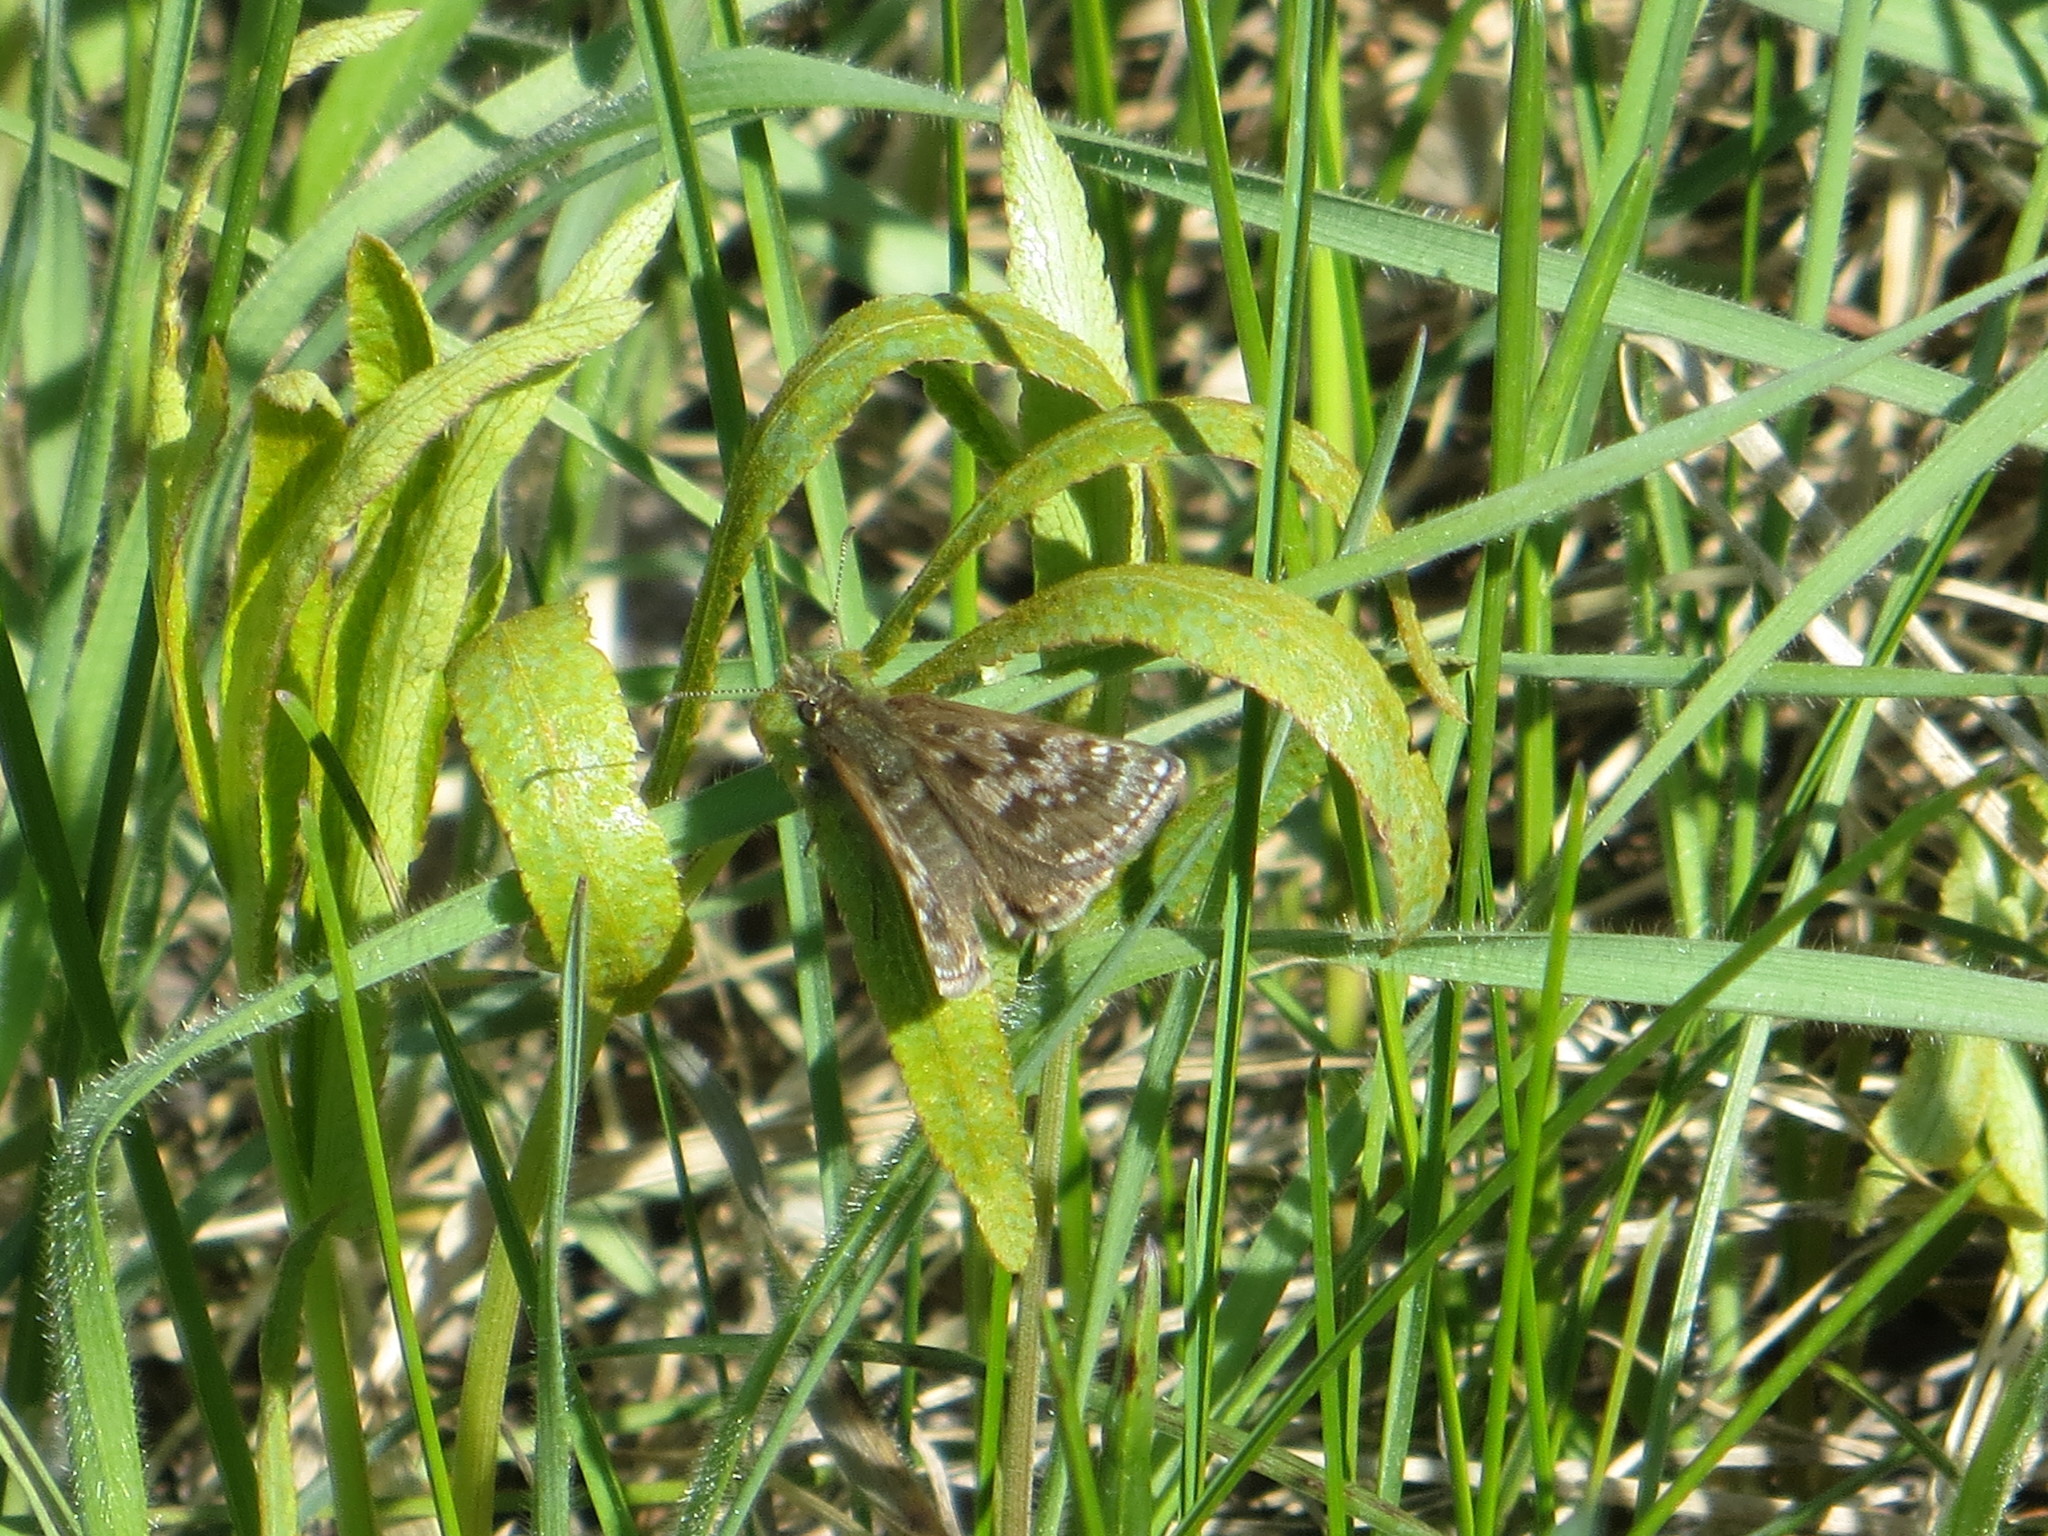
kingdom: Animalia
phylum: Arthropoda
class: Insecta
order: Lepidoptera
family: Hesperiidae
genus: Erynnis
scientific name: Erynnis tages
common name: Dingy skipper
